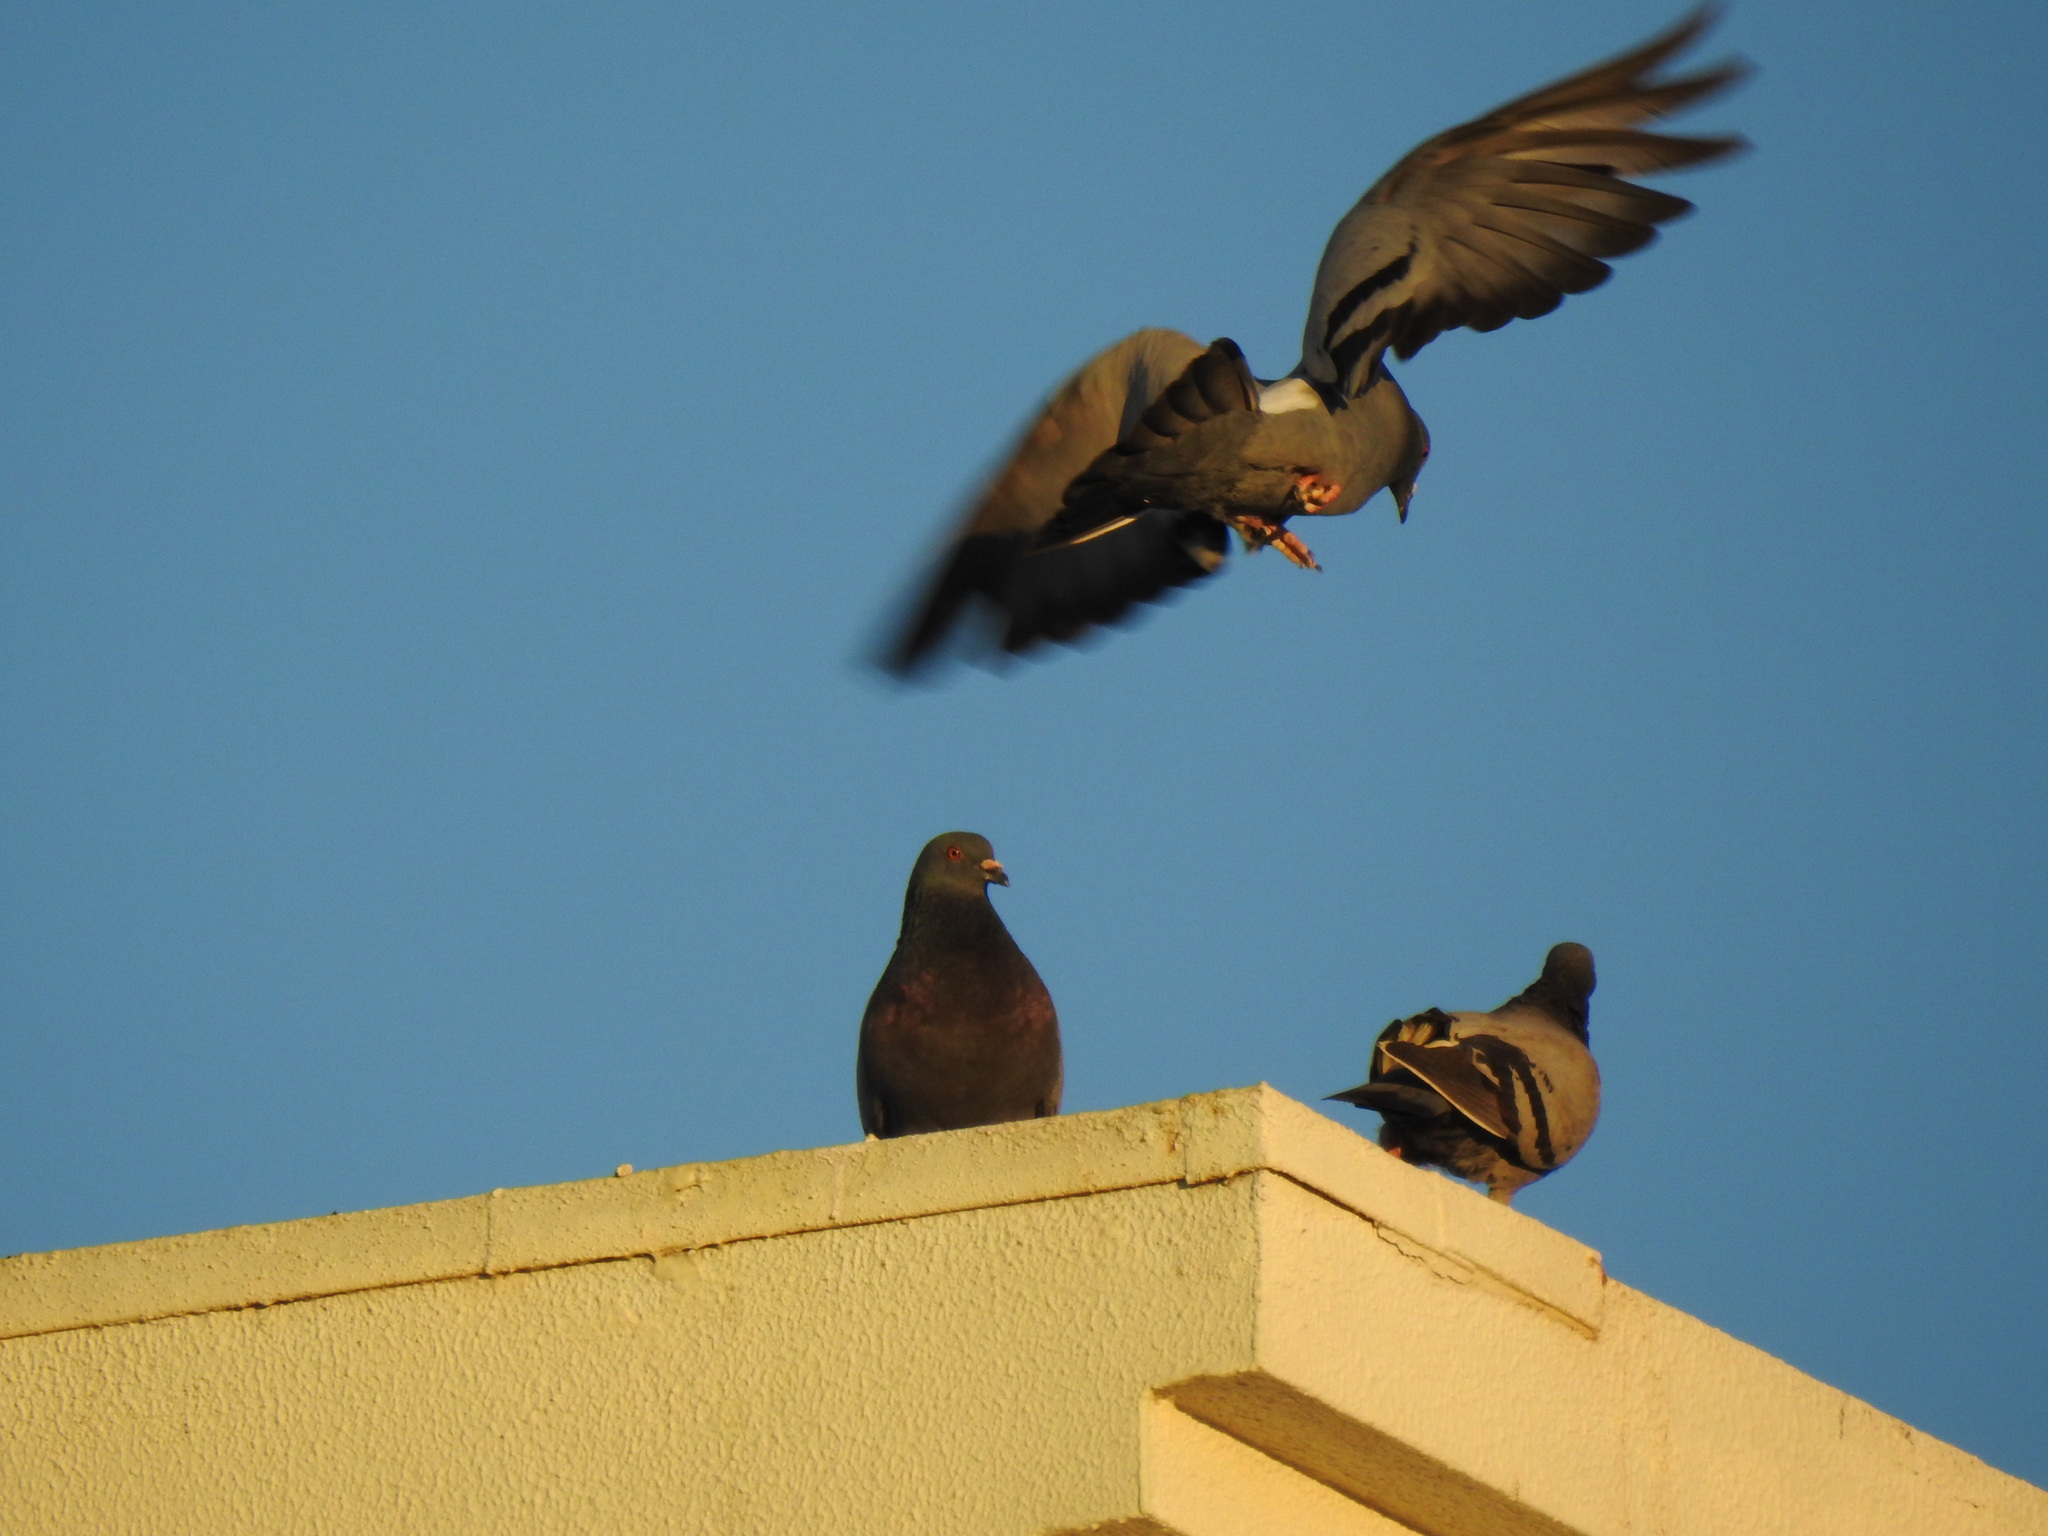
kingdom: Animalia
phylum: Chordata
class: Aves
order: Columbiformes
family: Columbidae
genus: Columba
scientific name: Columba livia
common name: Rock pigeon
